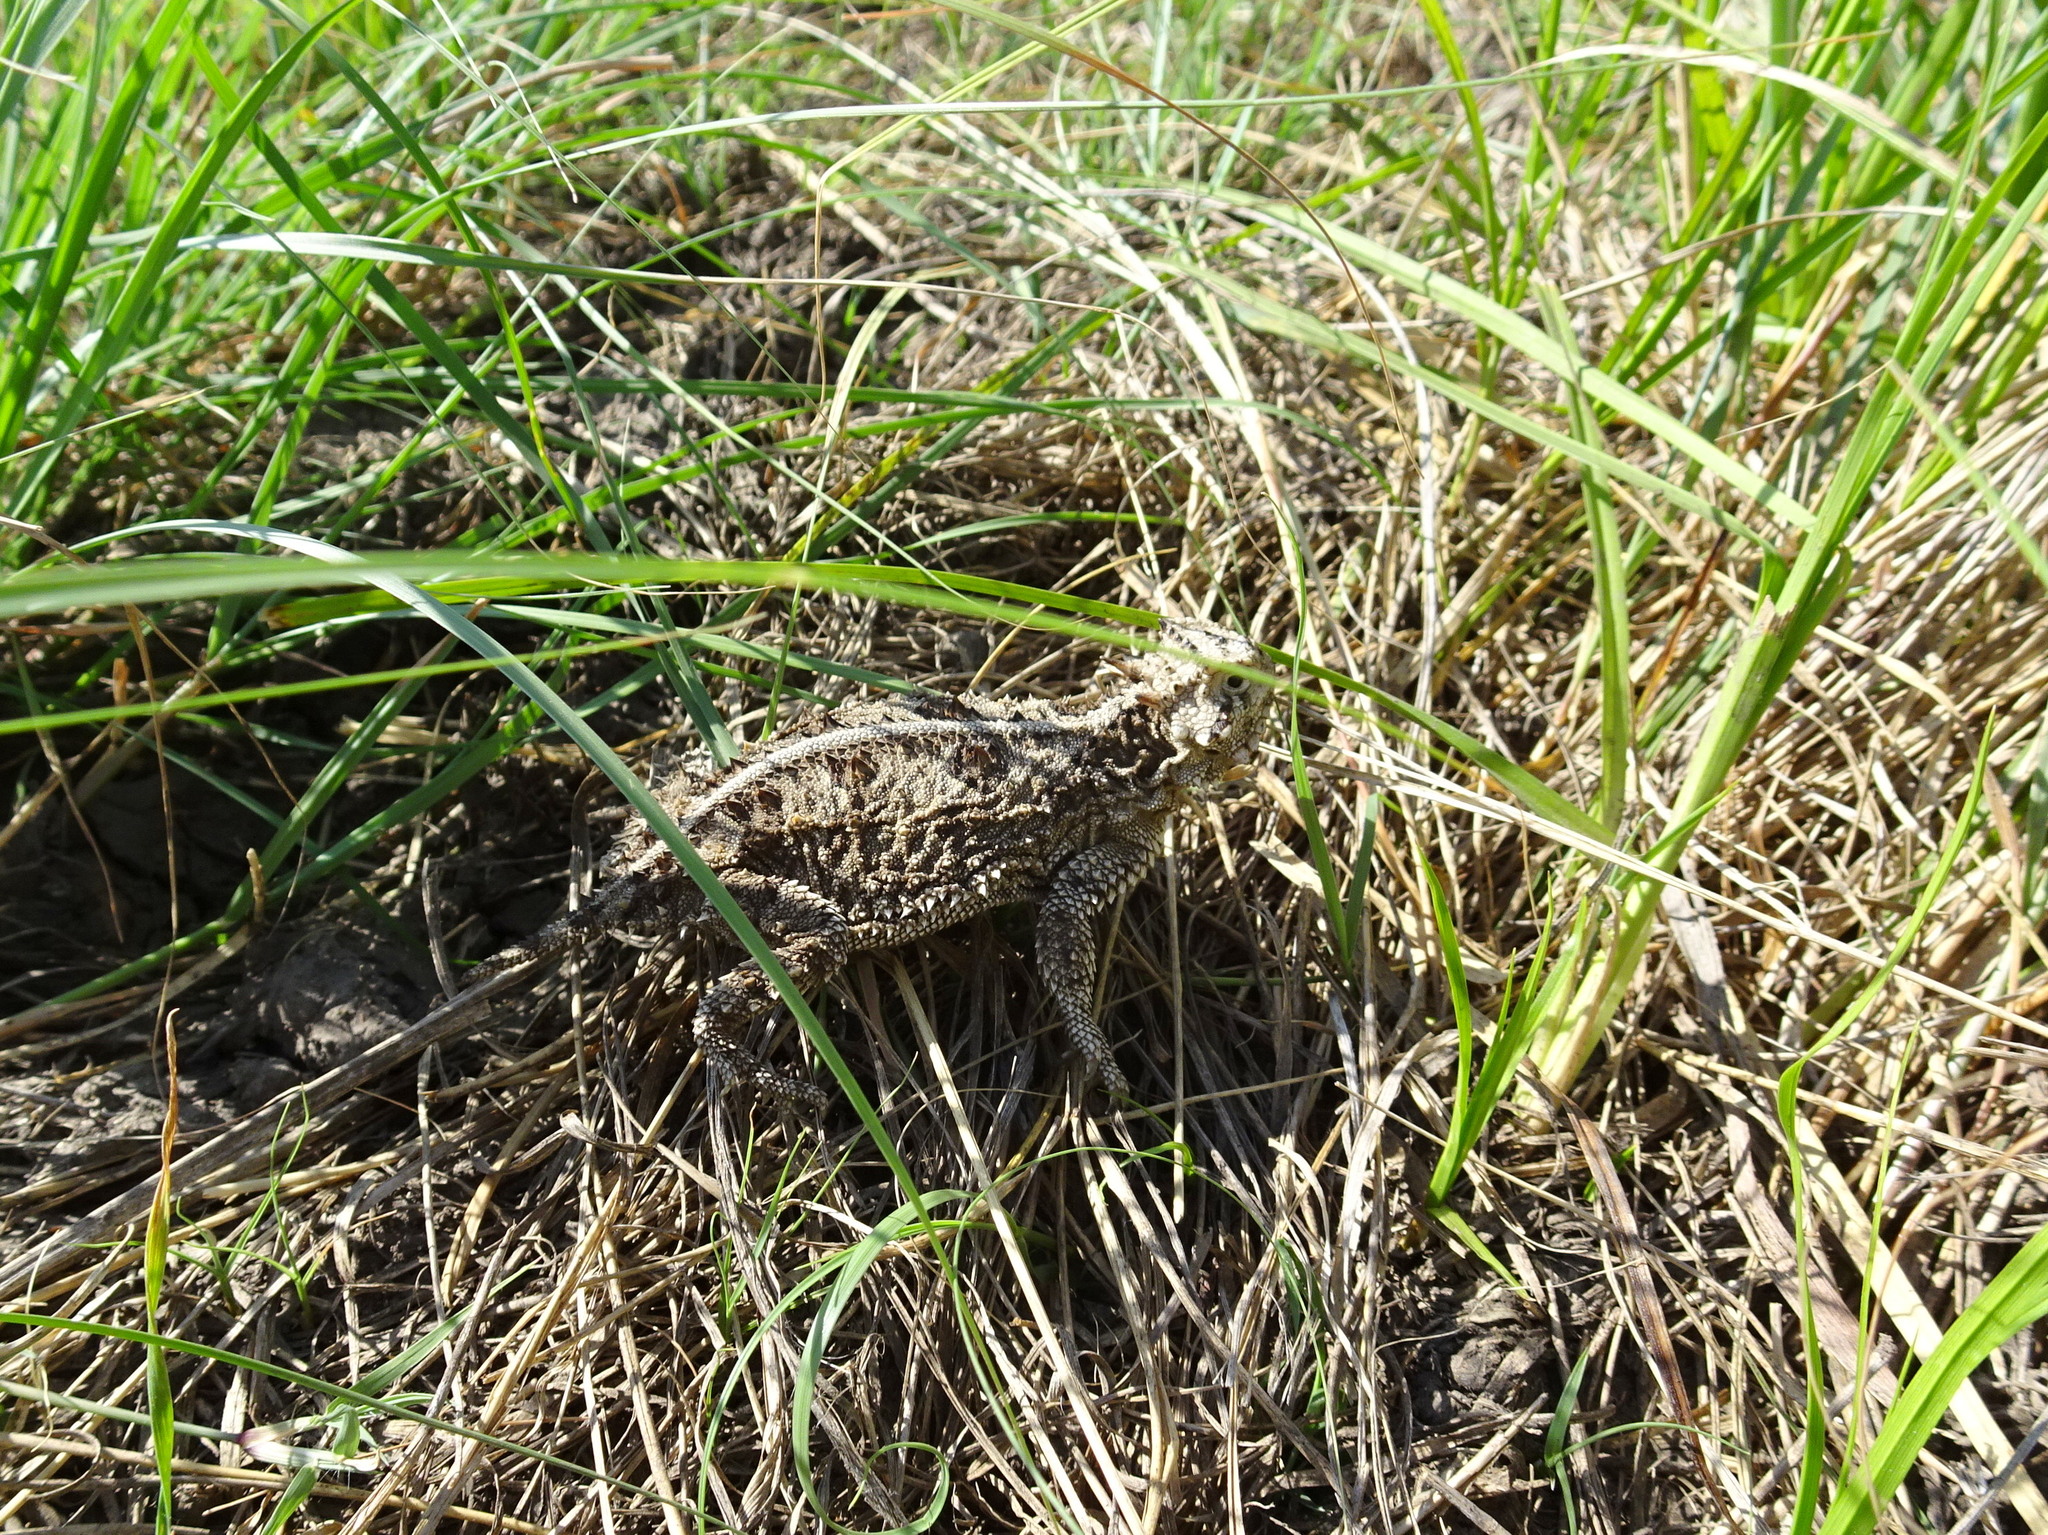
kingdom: Animalia
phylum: Chordata
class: Squamata
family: Phrynosomatidae
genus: Phrynosoma
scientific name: Phrynosoma cornutum
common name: Texas horned lizard
